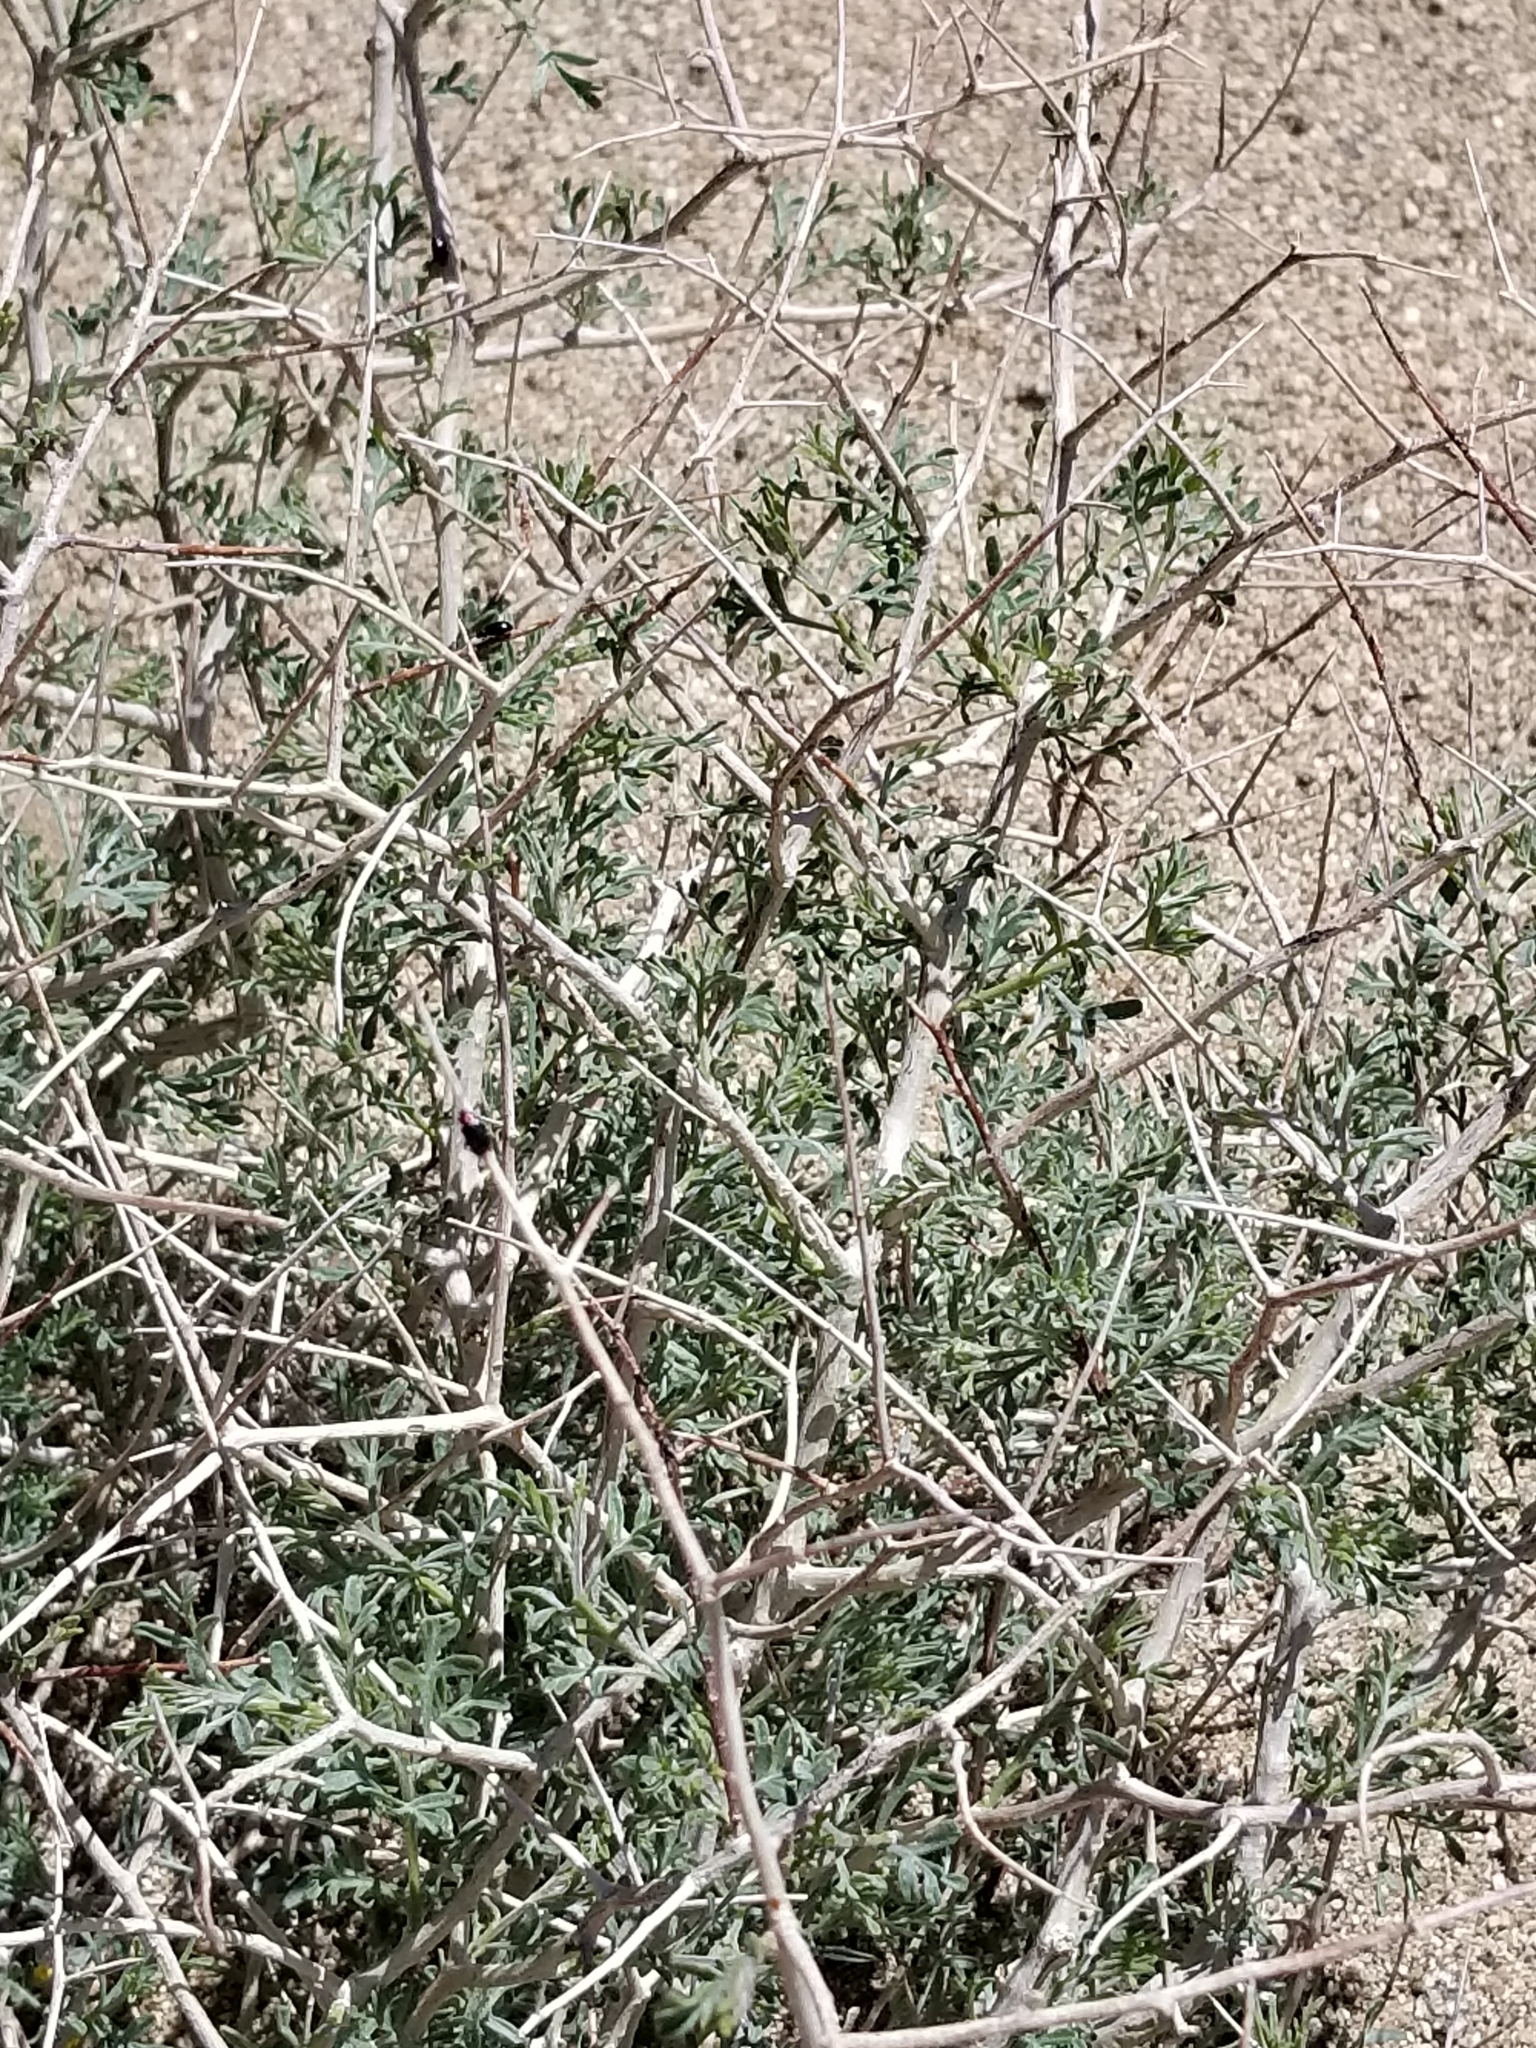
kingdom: Plantae
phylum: Tracheophyta
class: Magnoliopsida
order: Fabales
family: Fabaceae
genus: Psorothamnus
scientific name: Psorothamnus arborescens
